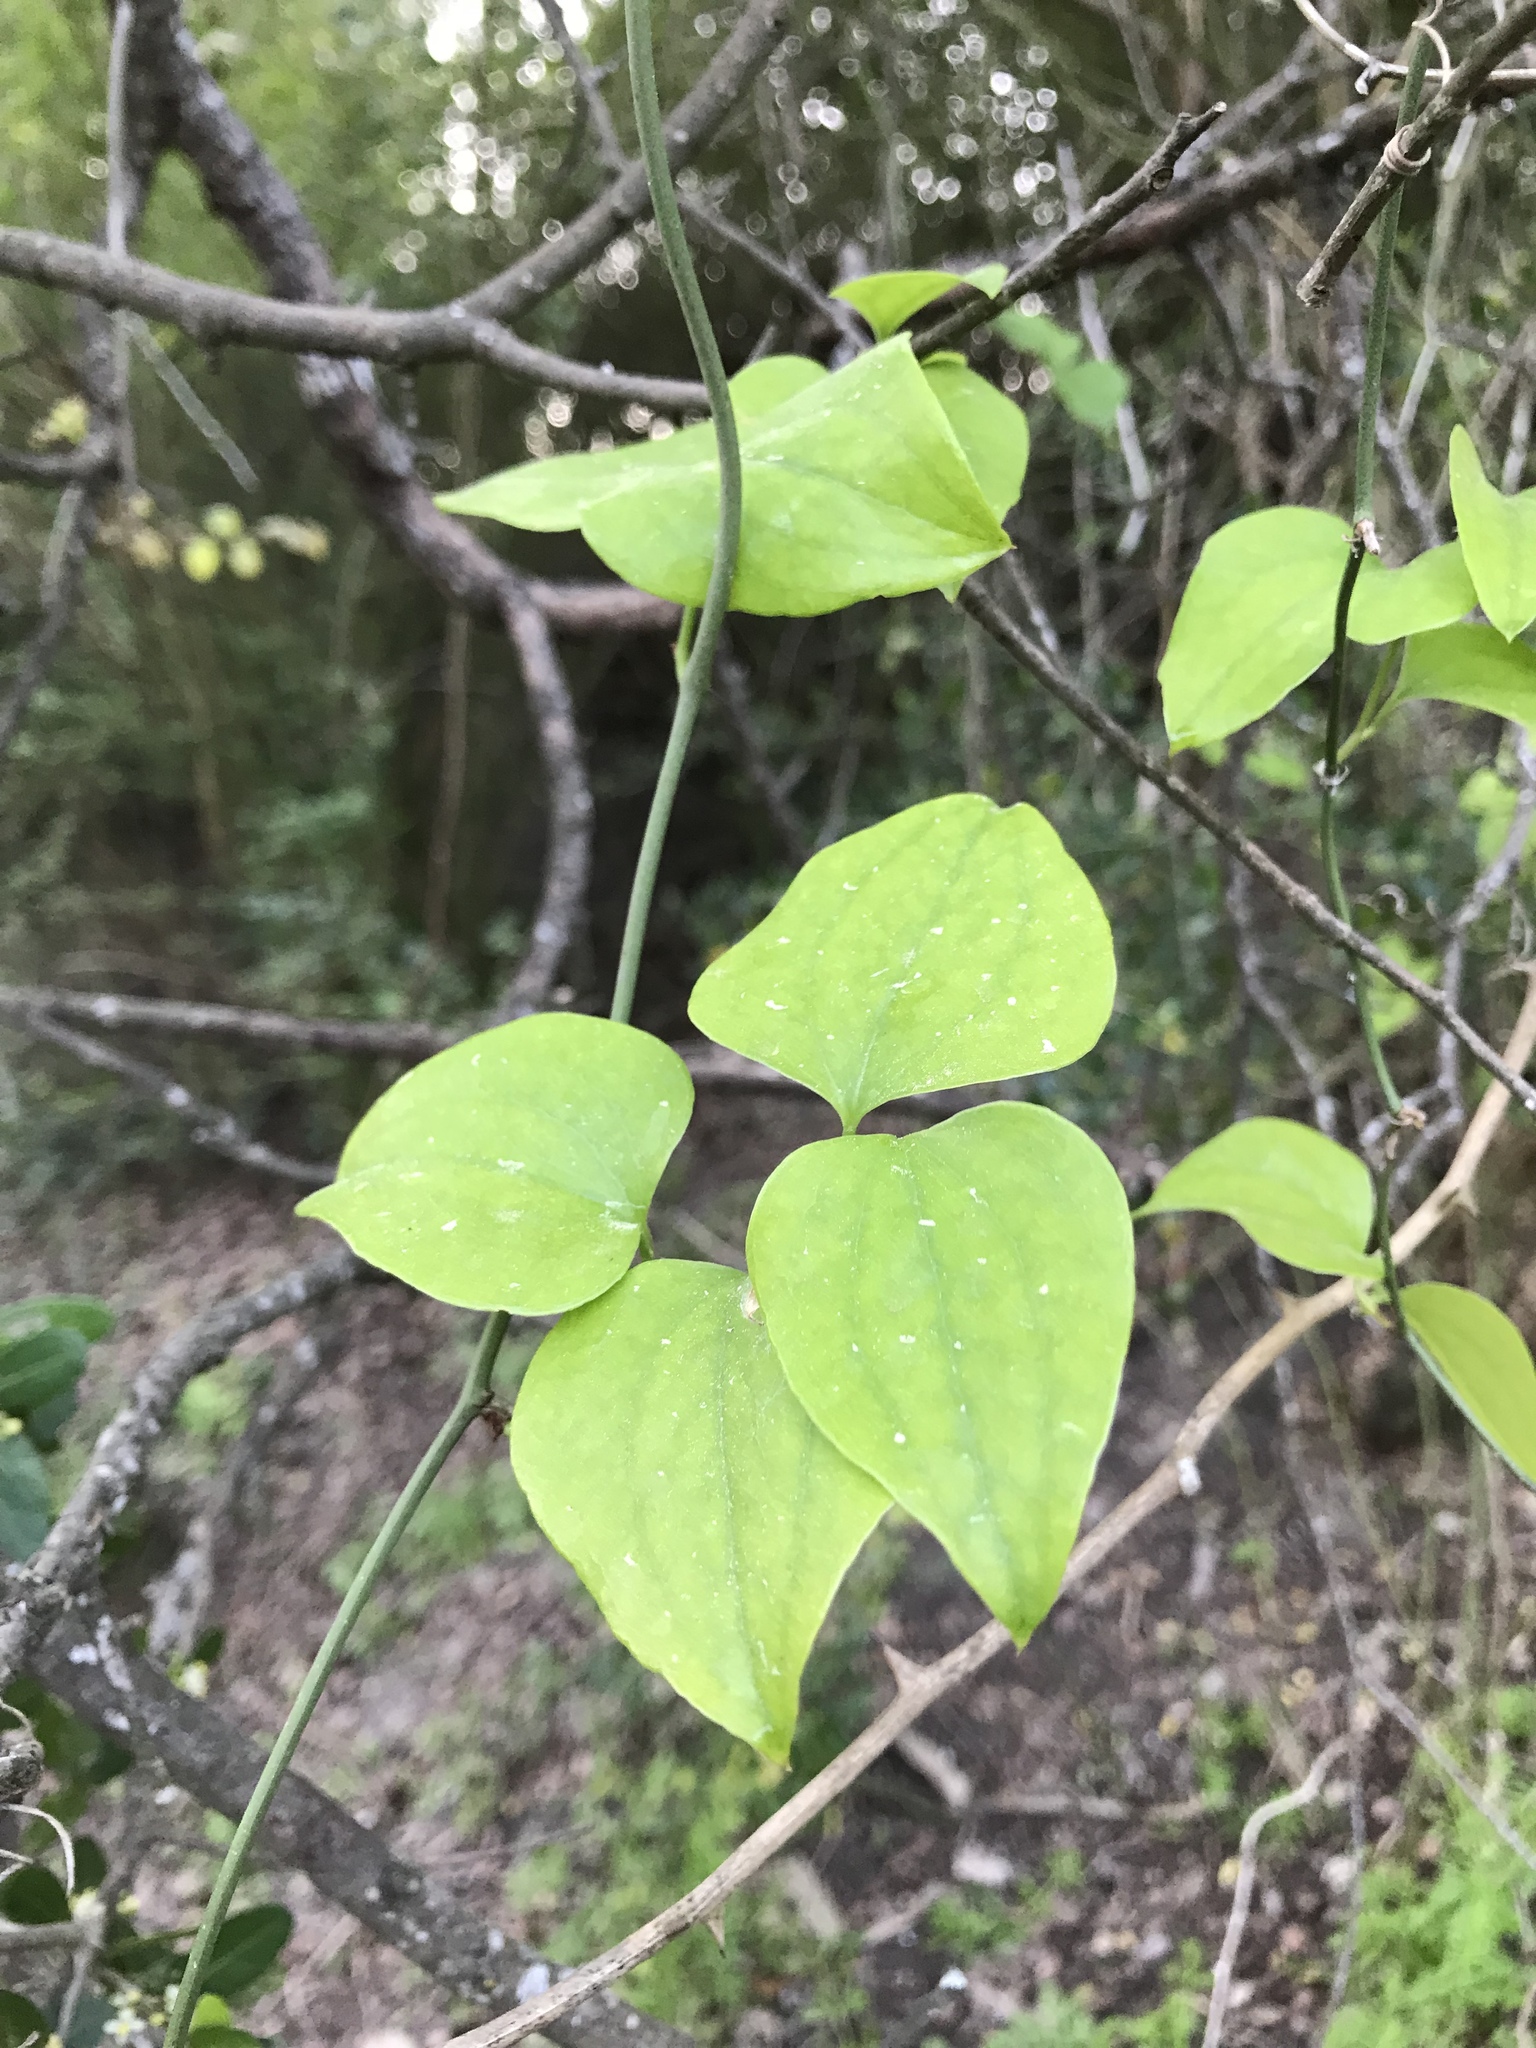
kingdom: Plantae
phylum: Tracheophyta
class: Liliopsida
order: Liliales
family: Smilacaceae
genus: Smilax
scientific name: Smilax rotundifolia
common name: Bullbriar
